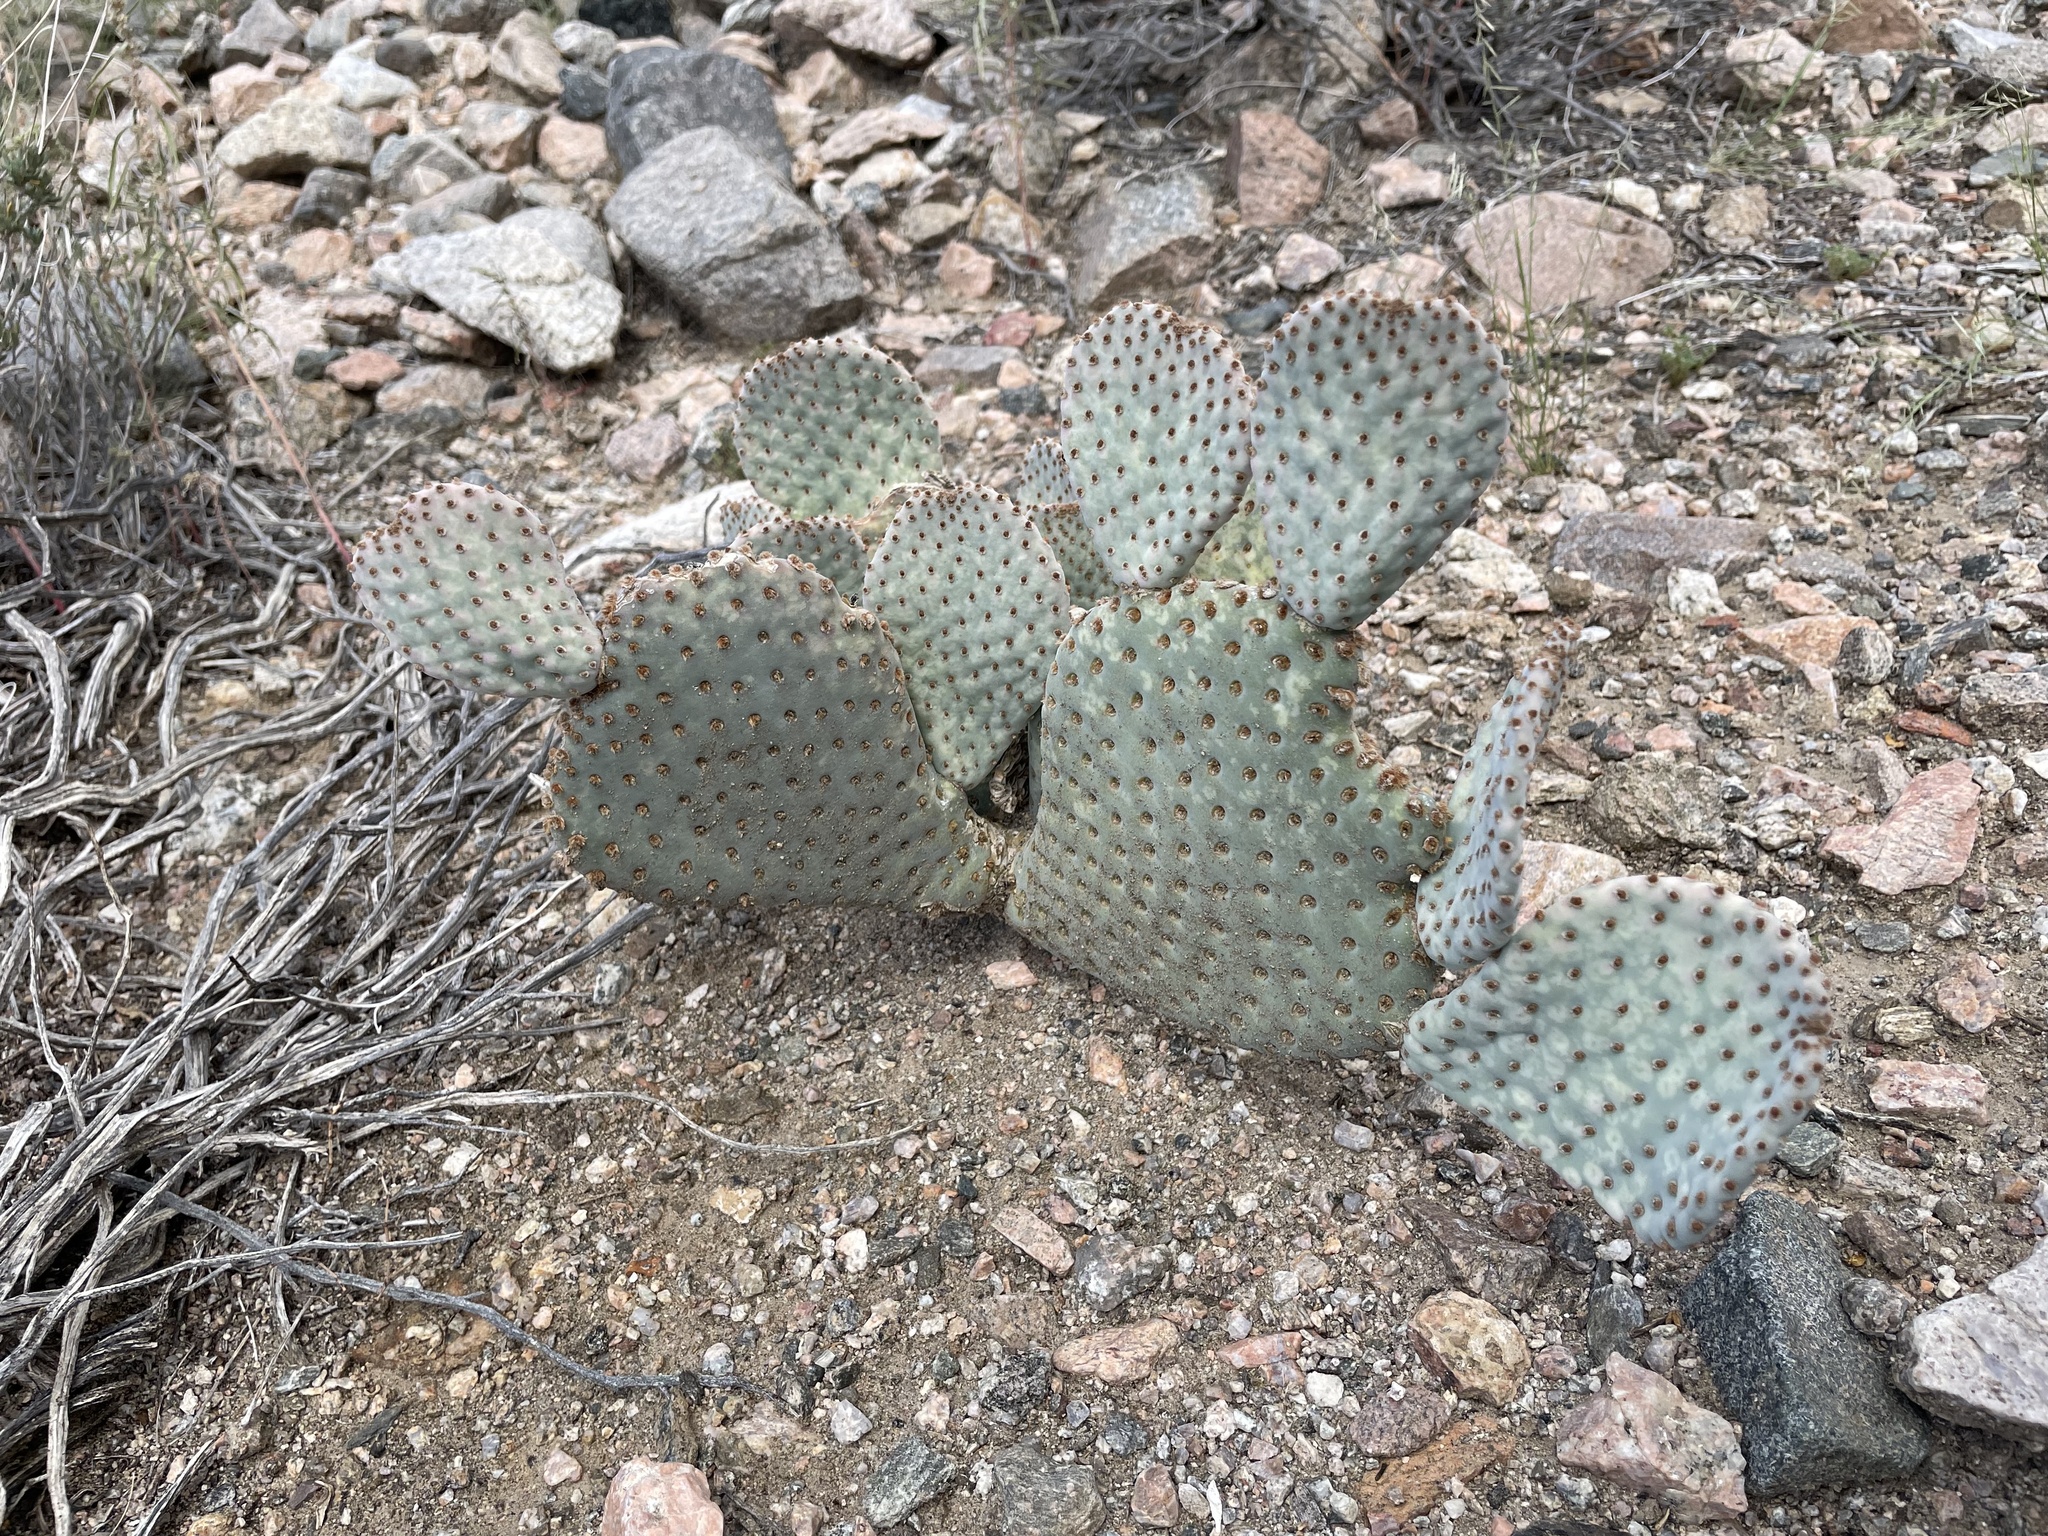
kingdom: Plantae
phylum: Tracheophyta
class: Magnoliopsida
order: Caryophyllales
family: Cactaceae
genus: Opuntia
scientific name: Opuntia basilaris
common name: Beavertail prickly-pear
